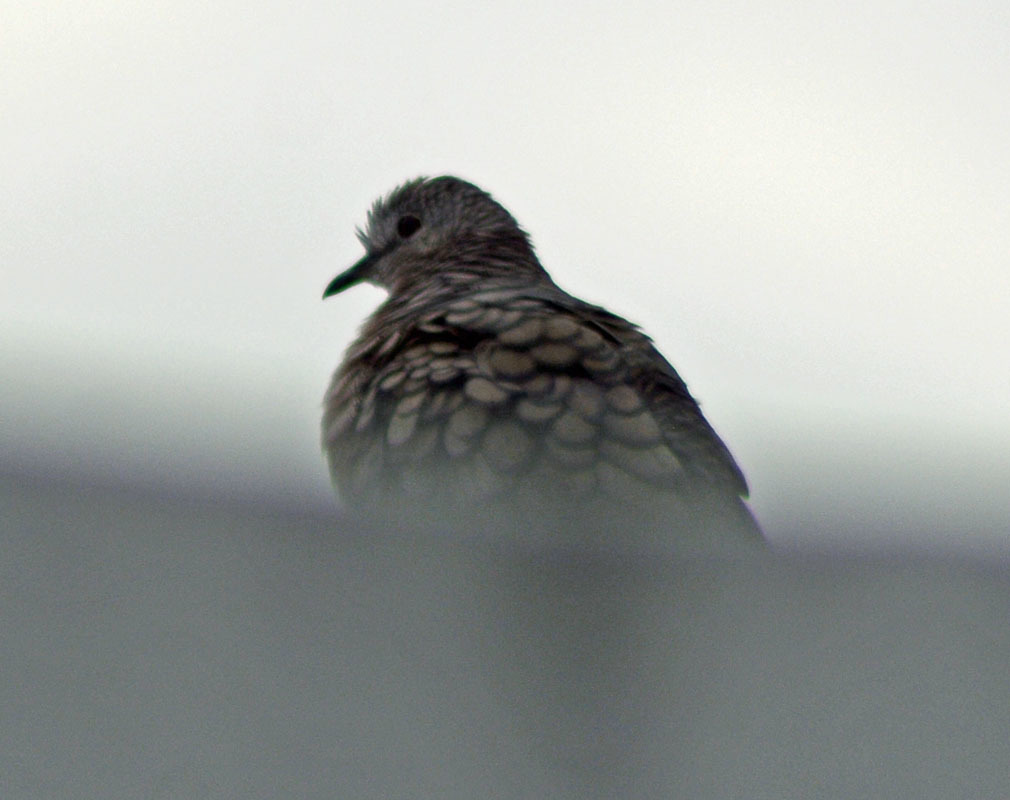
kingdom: Animalia
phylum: Chordata
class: Aves
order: Columbiformes
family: Columbidae
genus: Columbina
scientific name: Columbina inca
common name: Inca dove
